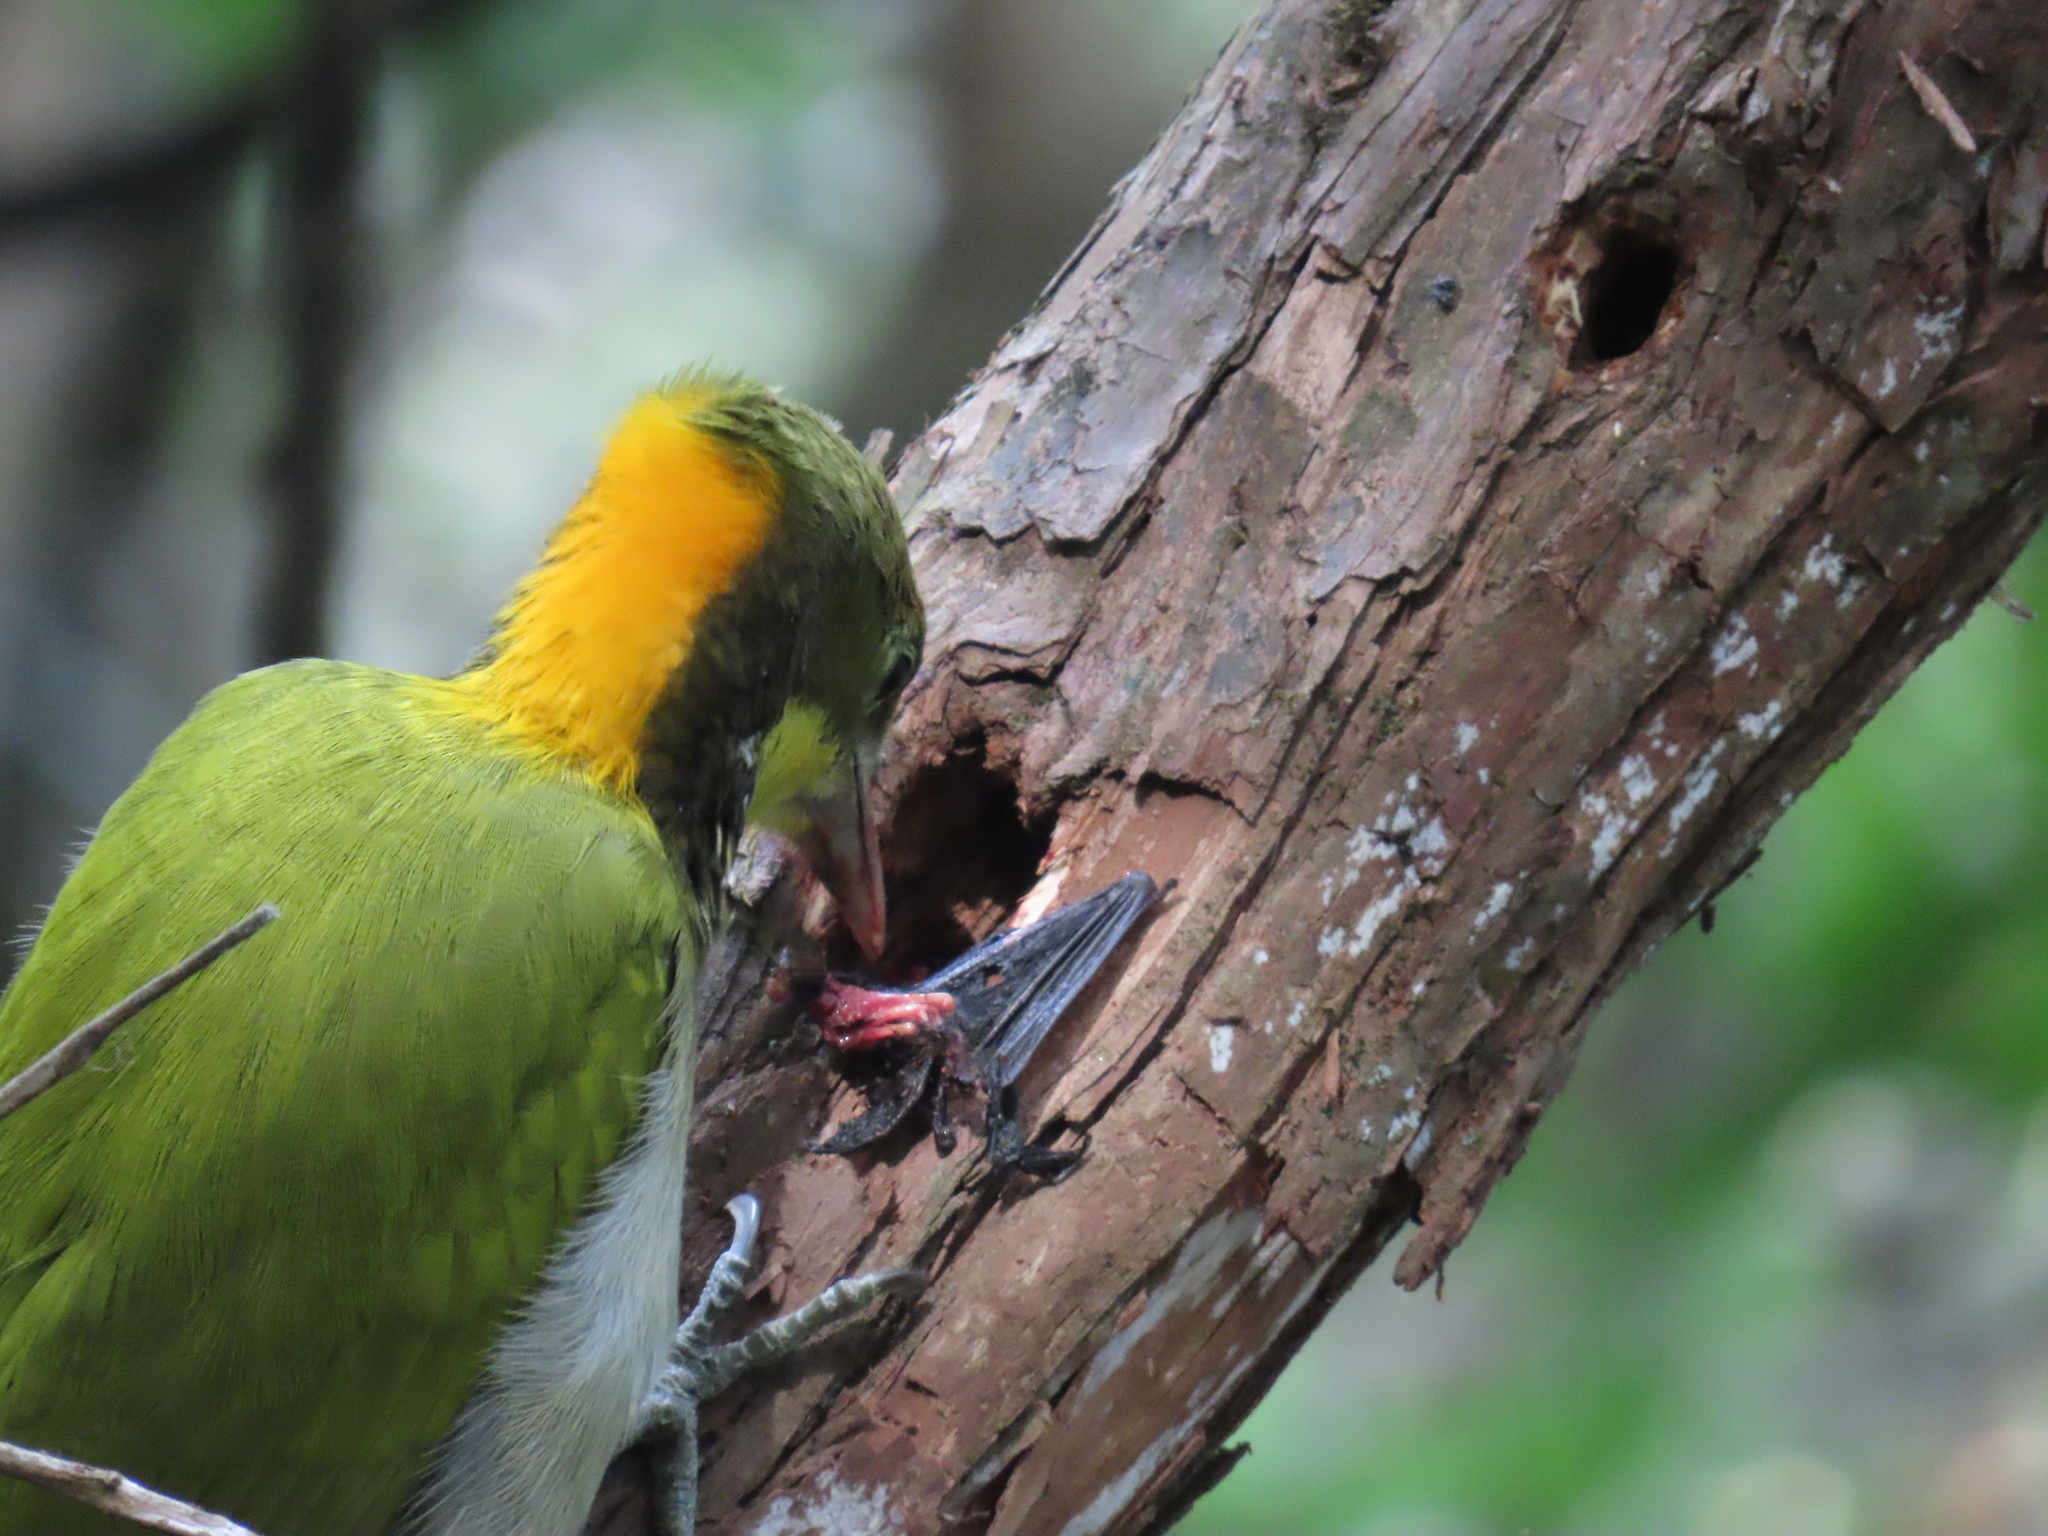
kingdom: Animalia
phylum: Chordata
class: Aves
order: Piciformes
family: Picidae
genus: Chrysophlegma
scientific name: Chrysophlegma flavinucha
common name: Greater yellownape
